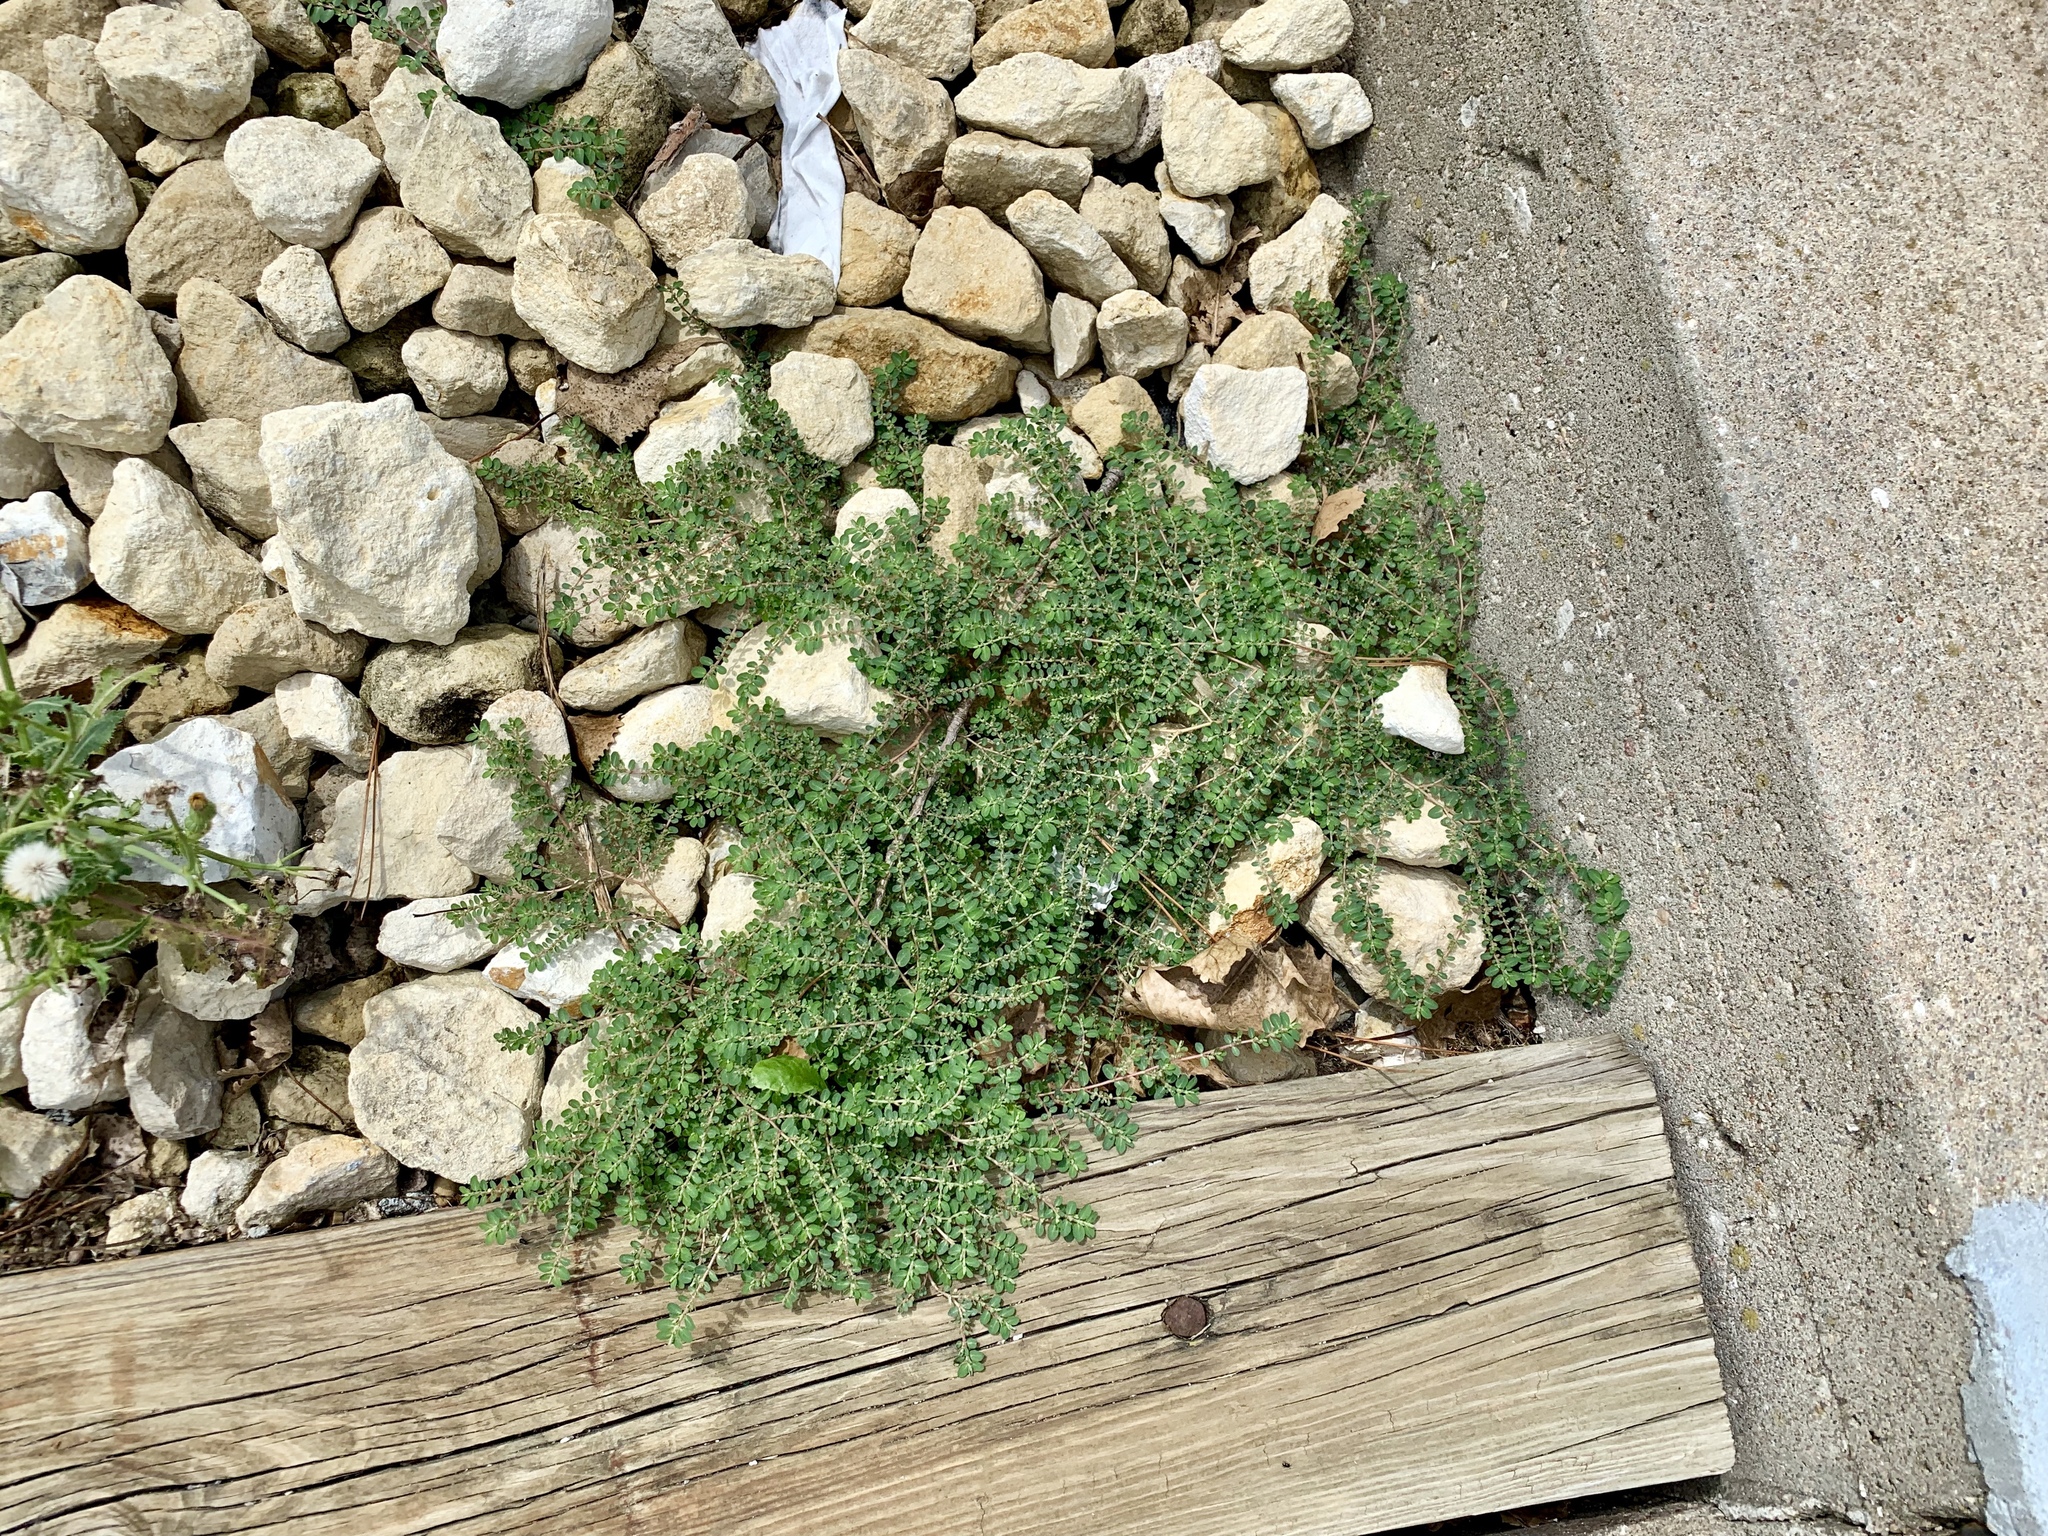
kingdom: Plantae
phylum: Tracheophyta
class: Magnoliopsida
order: Malpighiales
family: Euphorbiaceae
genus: Euphorbia
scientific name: Euphorbia prostrata
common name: Prostrate sandmat
